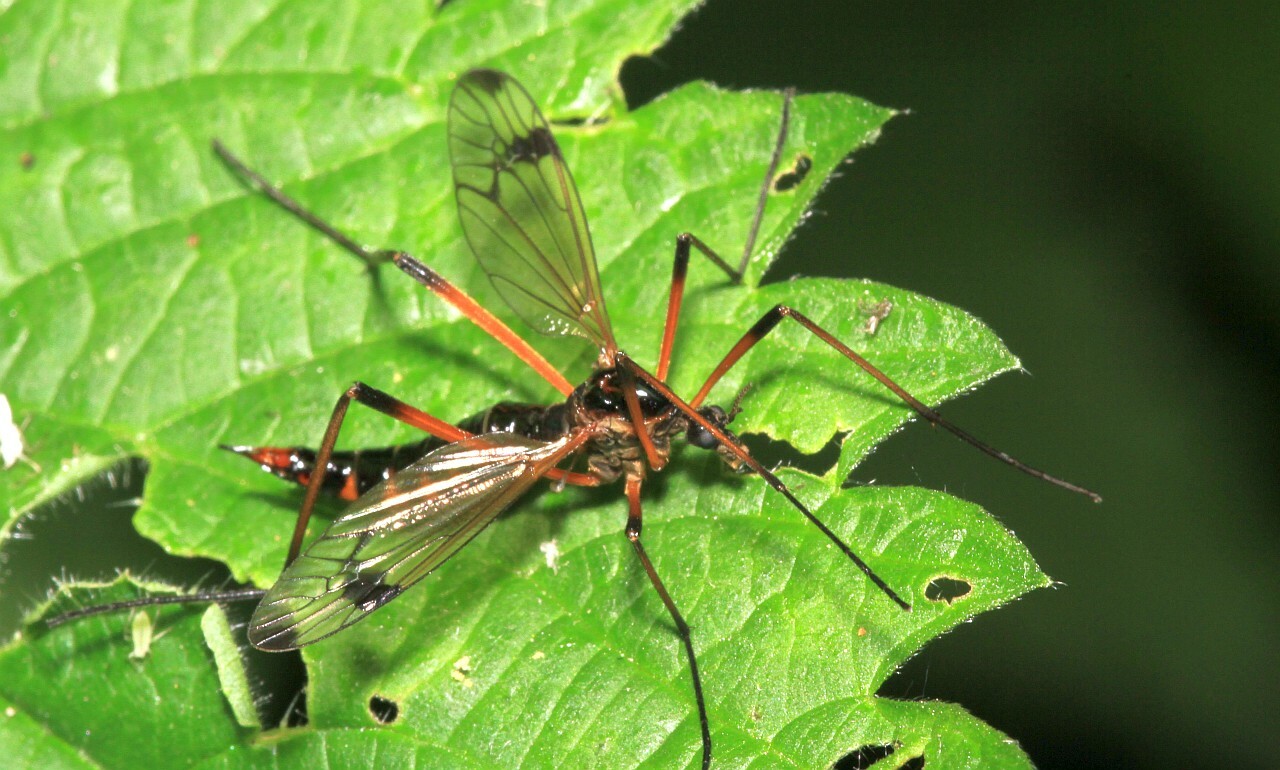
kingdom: Animalia
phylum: Arthropoda
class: Insecta
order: Diptera
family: Tipulidae
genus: Dictenidia
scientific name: Dictenidia bimaculata
